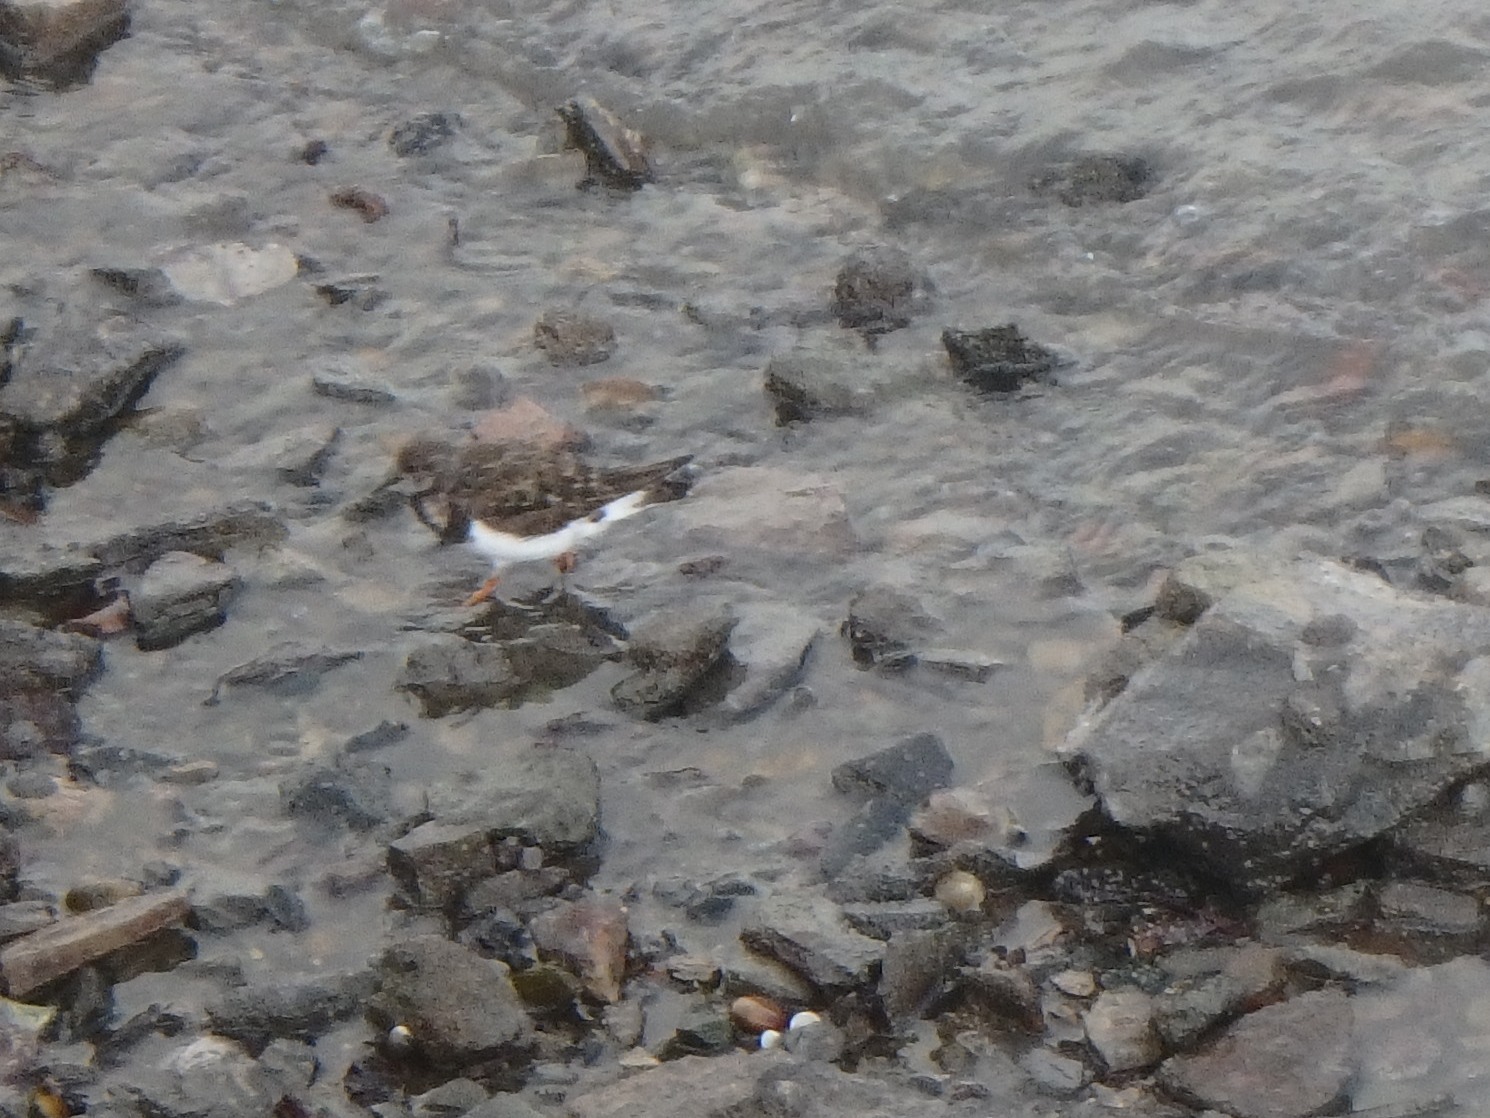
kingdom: Animalia
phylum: Chordata
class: Aves
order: Charadriiformes
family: Scolopacidae
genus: Arenaria
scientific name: Arenaria interpres
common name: Ruddy turnstone
